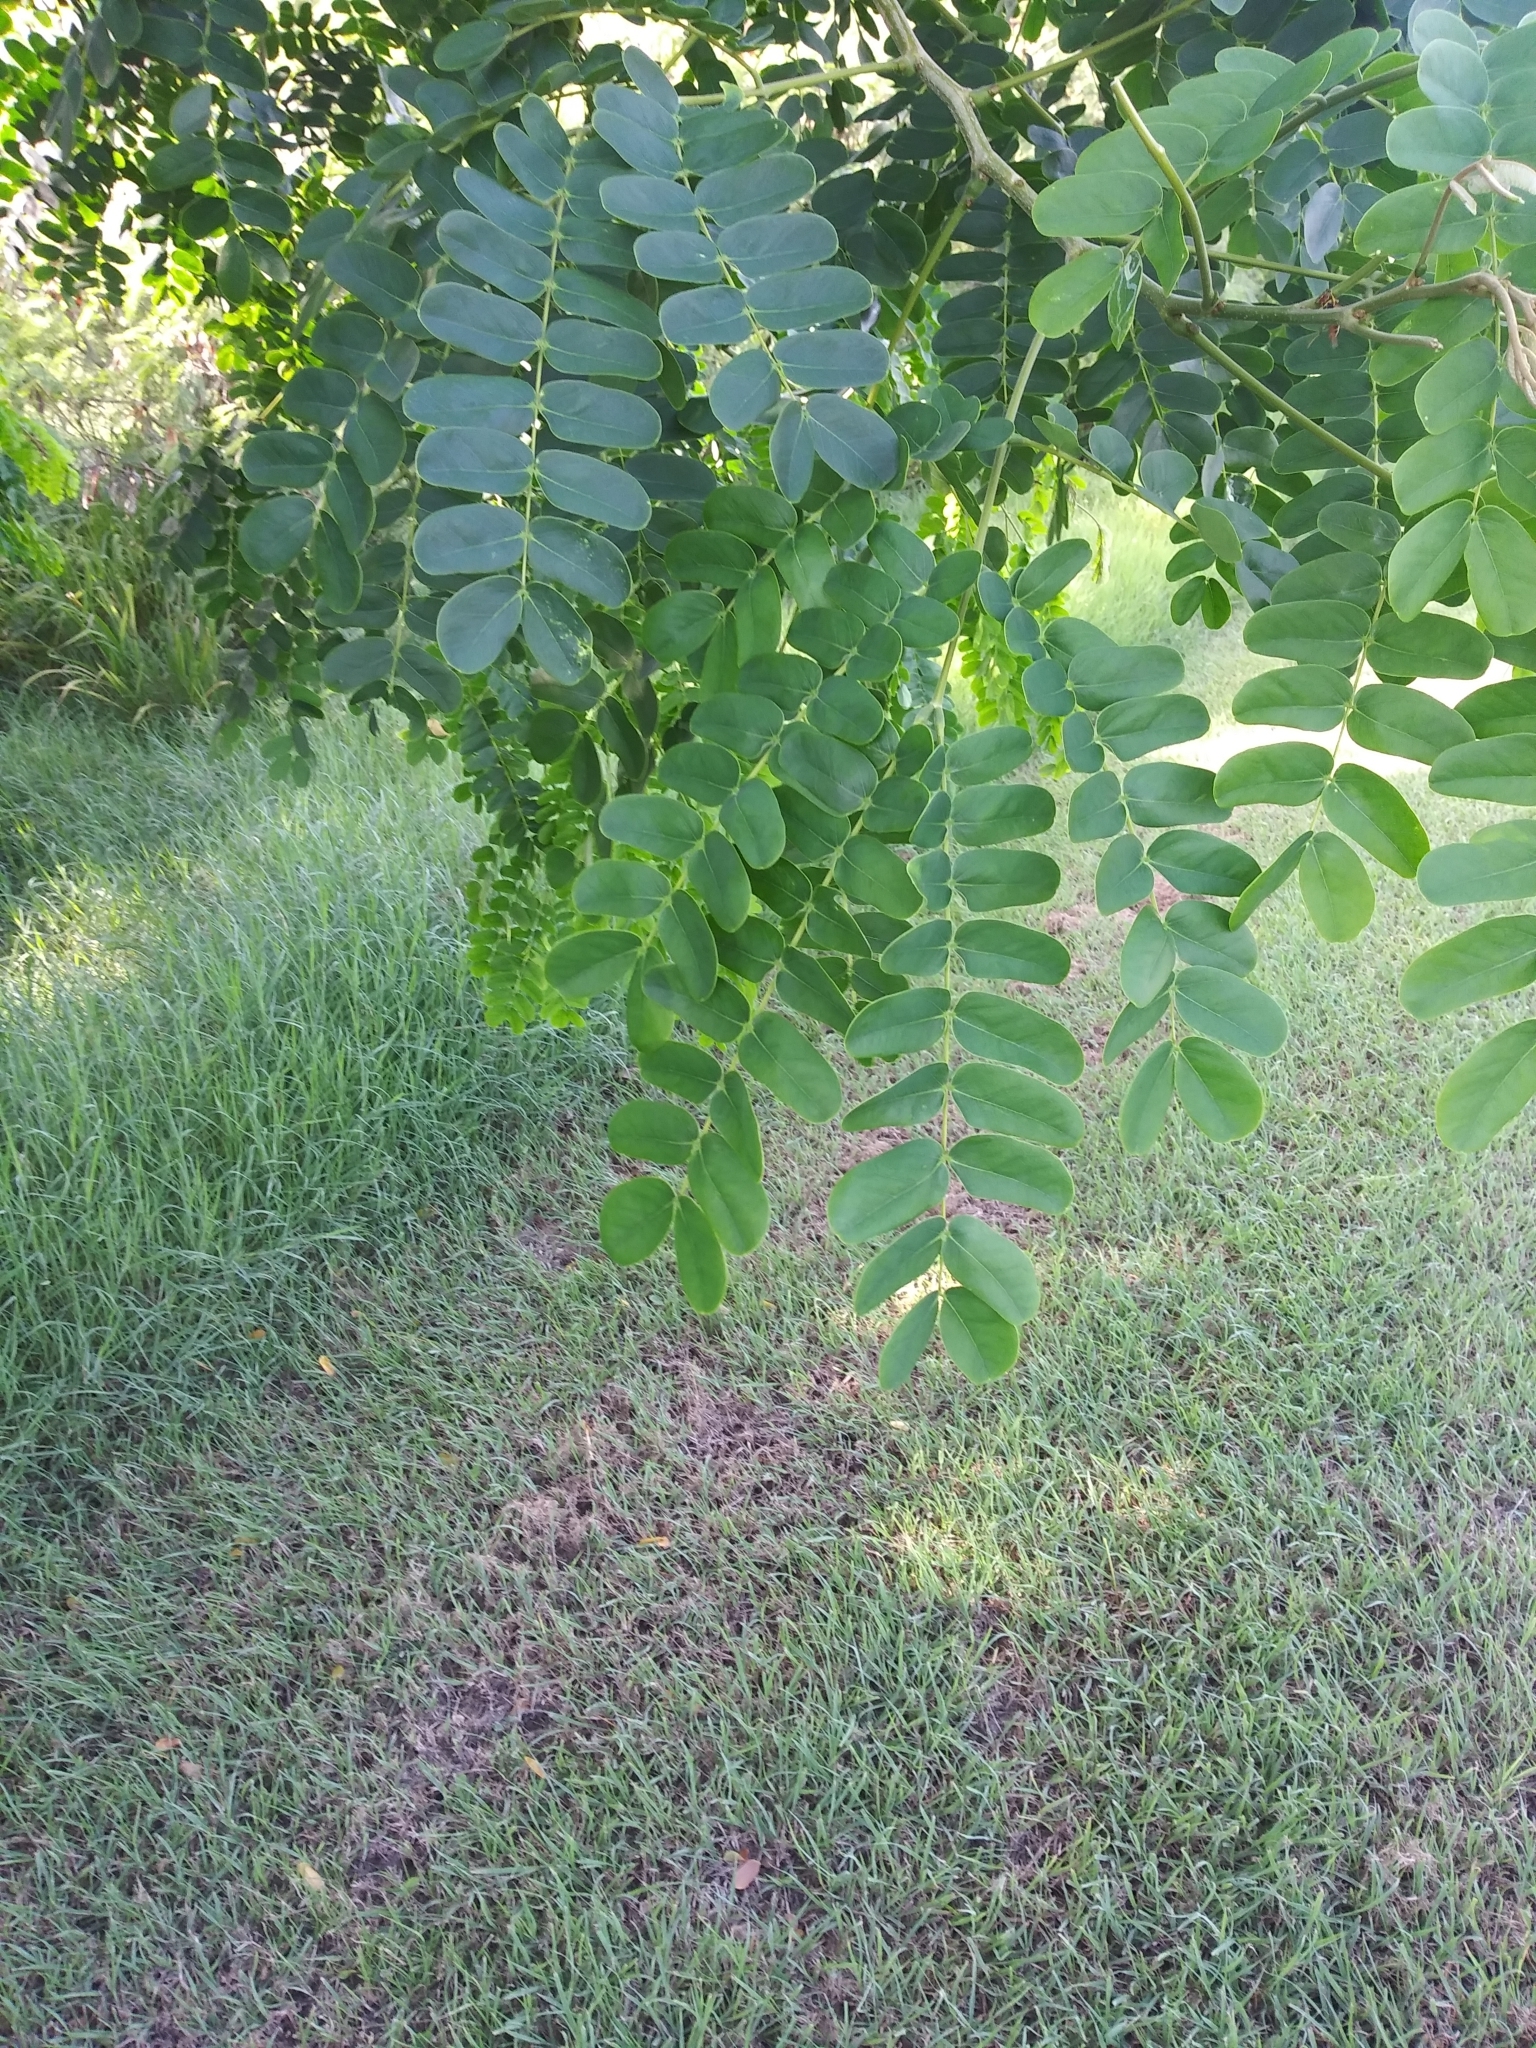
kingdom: Plantae
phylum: Tracheophyta
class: Magnoliopsida
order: Fabales
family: Fabaceae
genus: Albizia
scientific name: Albizia lebbeck
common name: Woman's tongue
